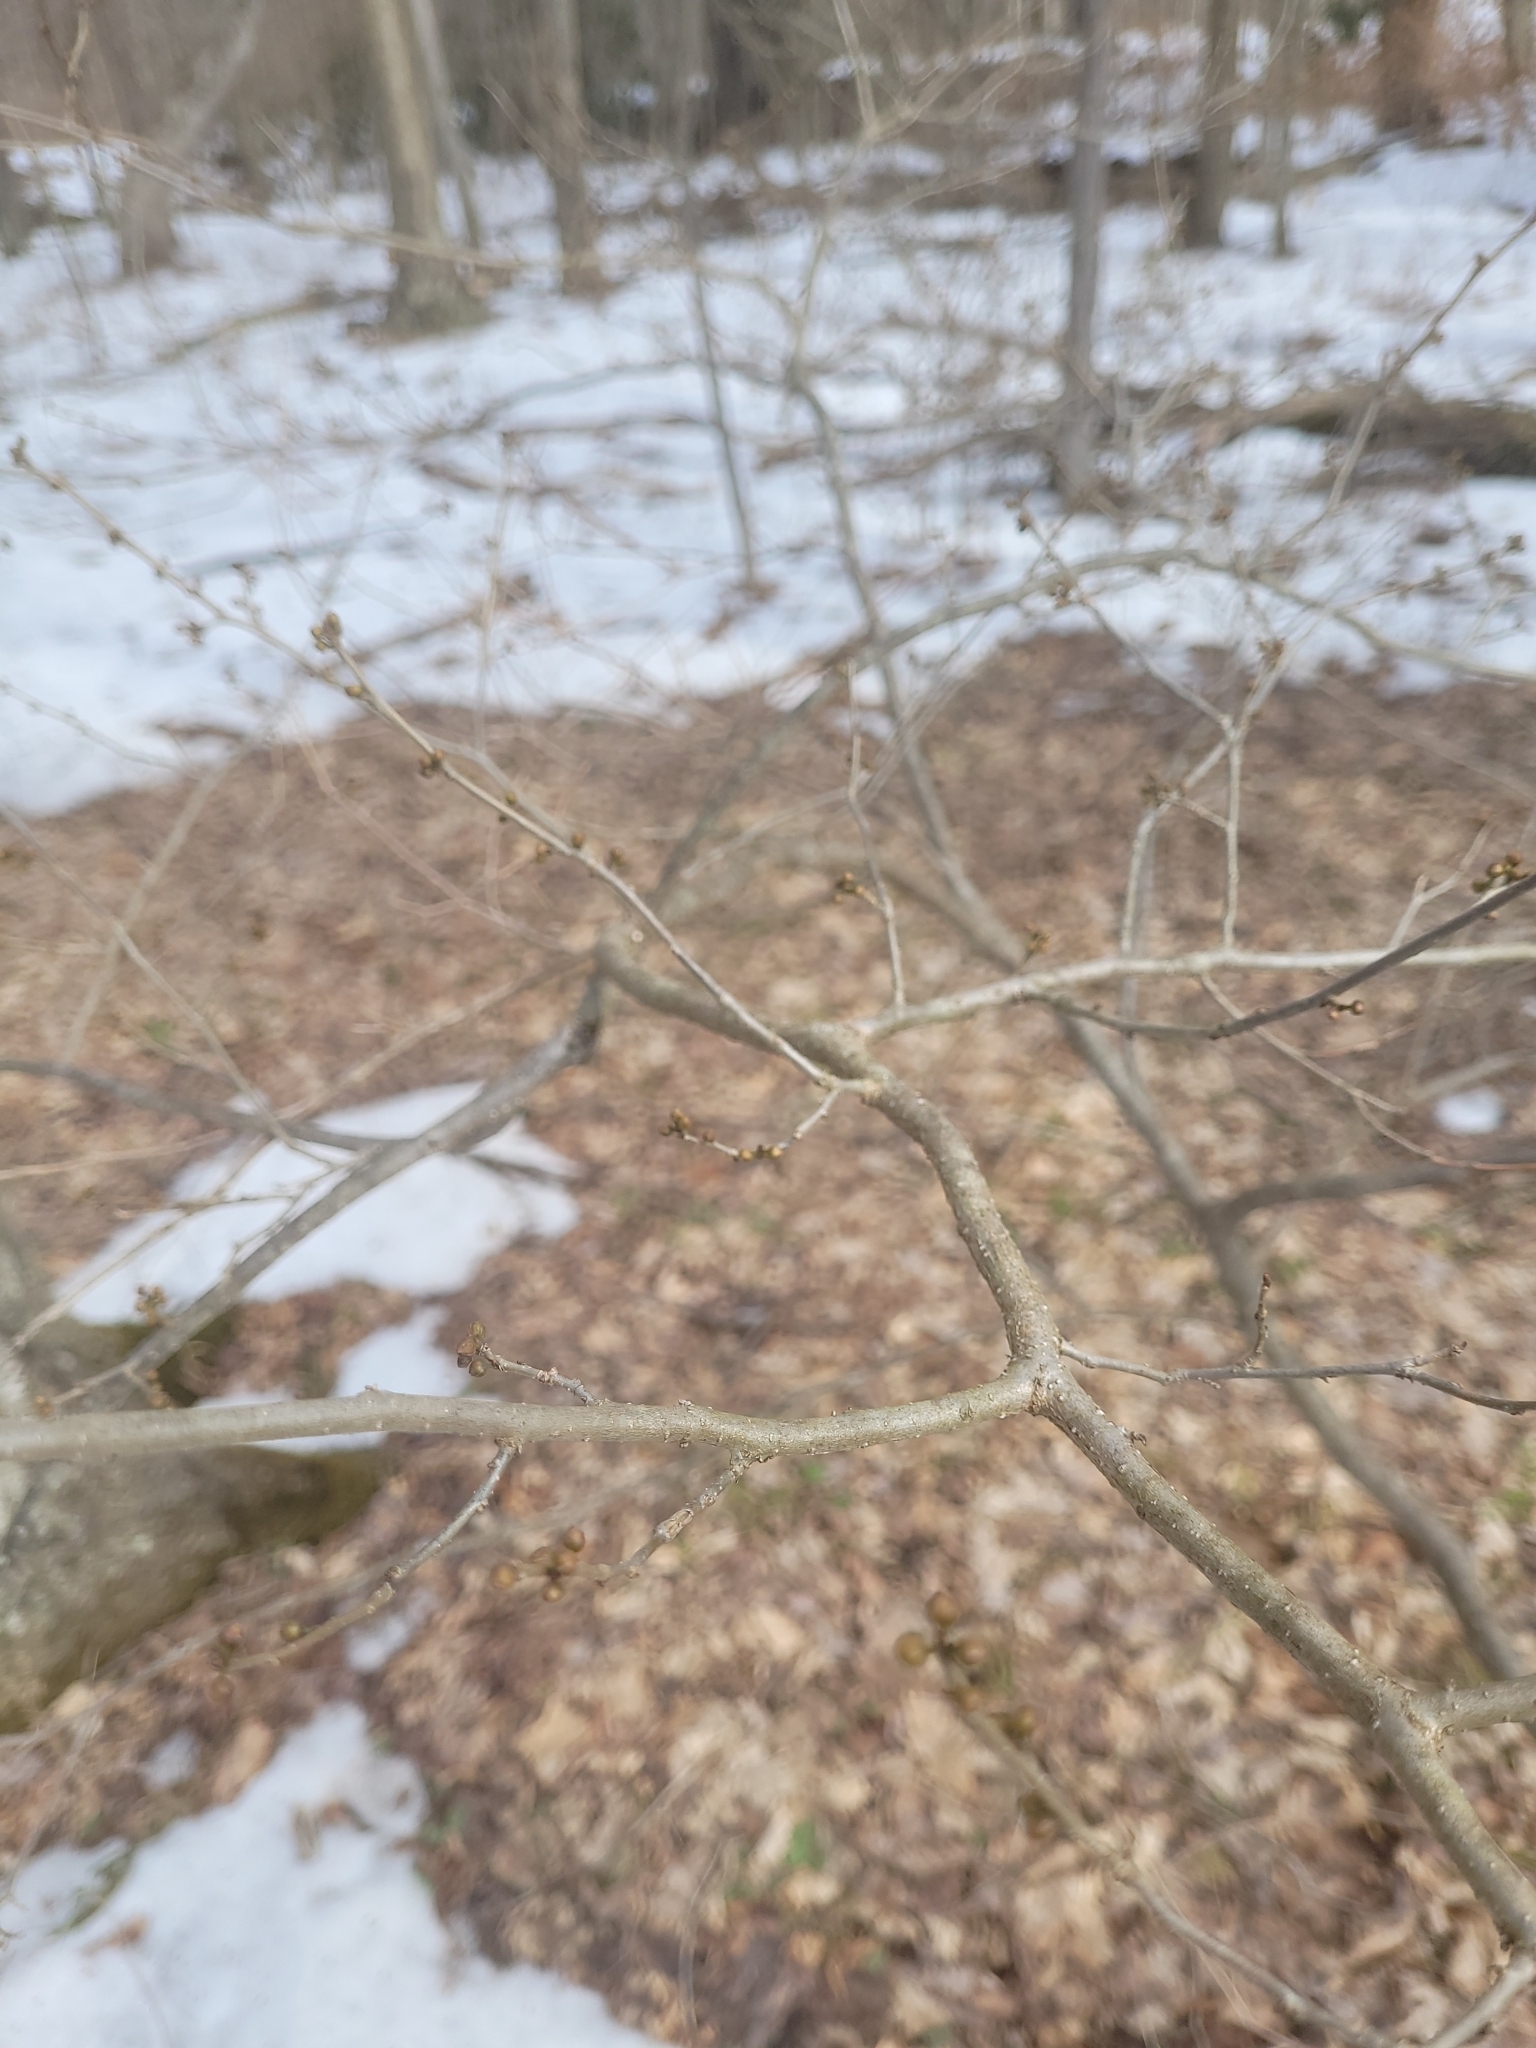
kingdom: Plantae
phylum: Tracheophyta
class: Magnoliopsida
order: Laurales
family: Lauraceae
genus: Lindera
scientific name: Lindera benzoin
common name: Spicebush
